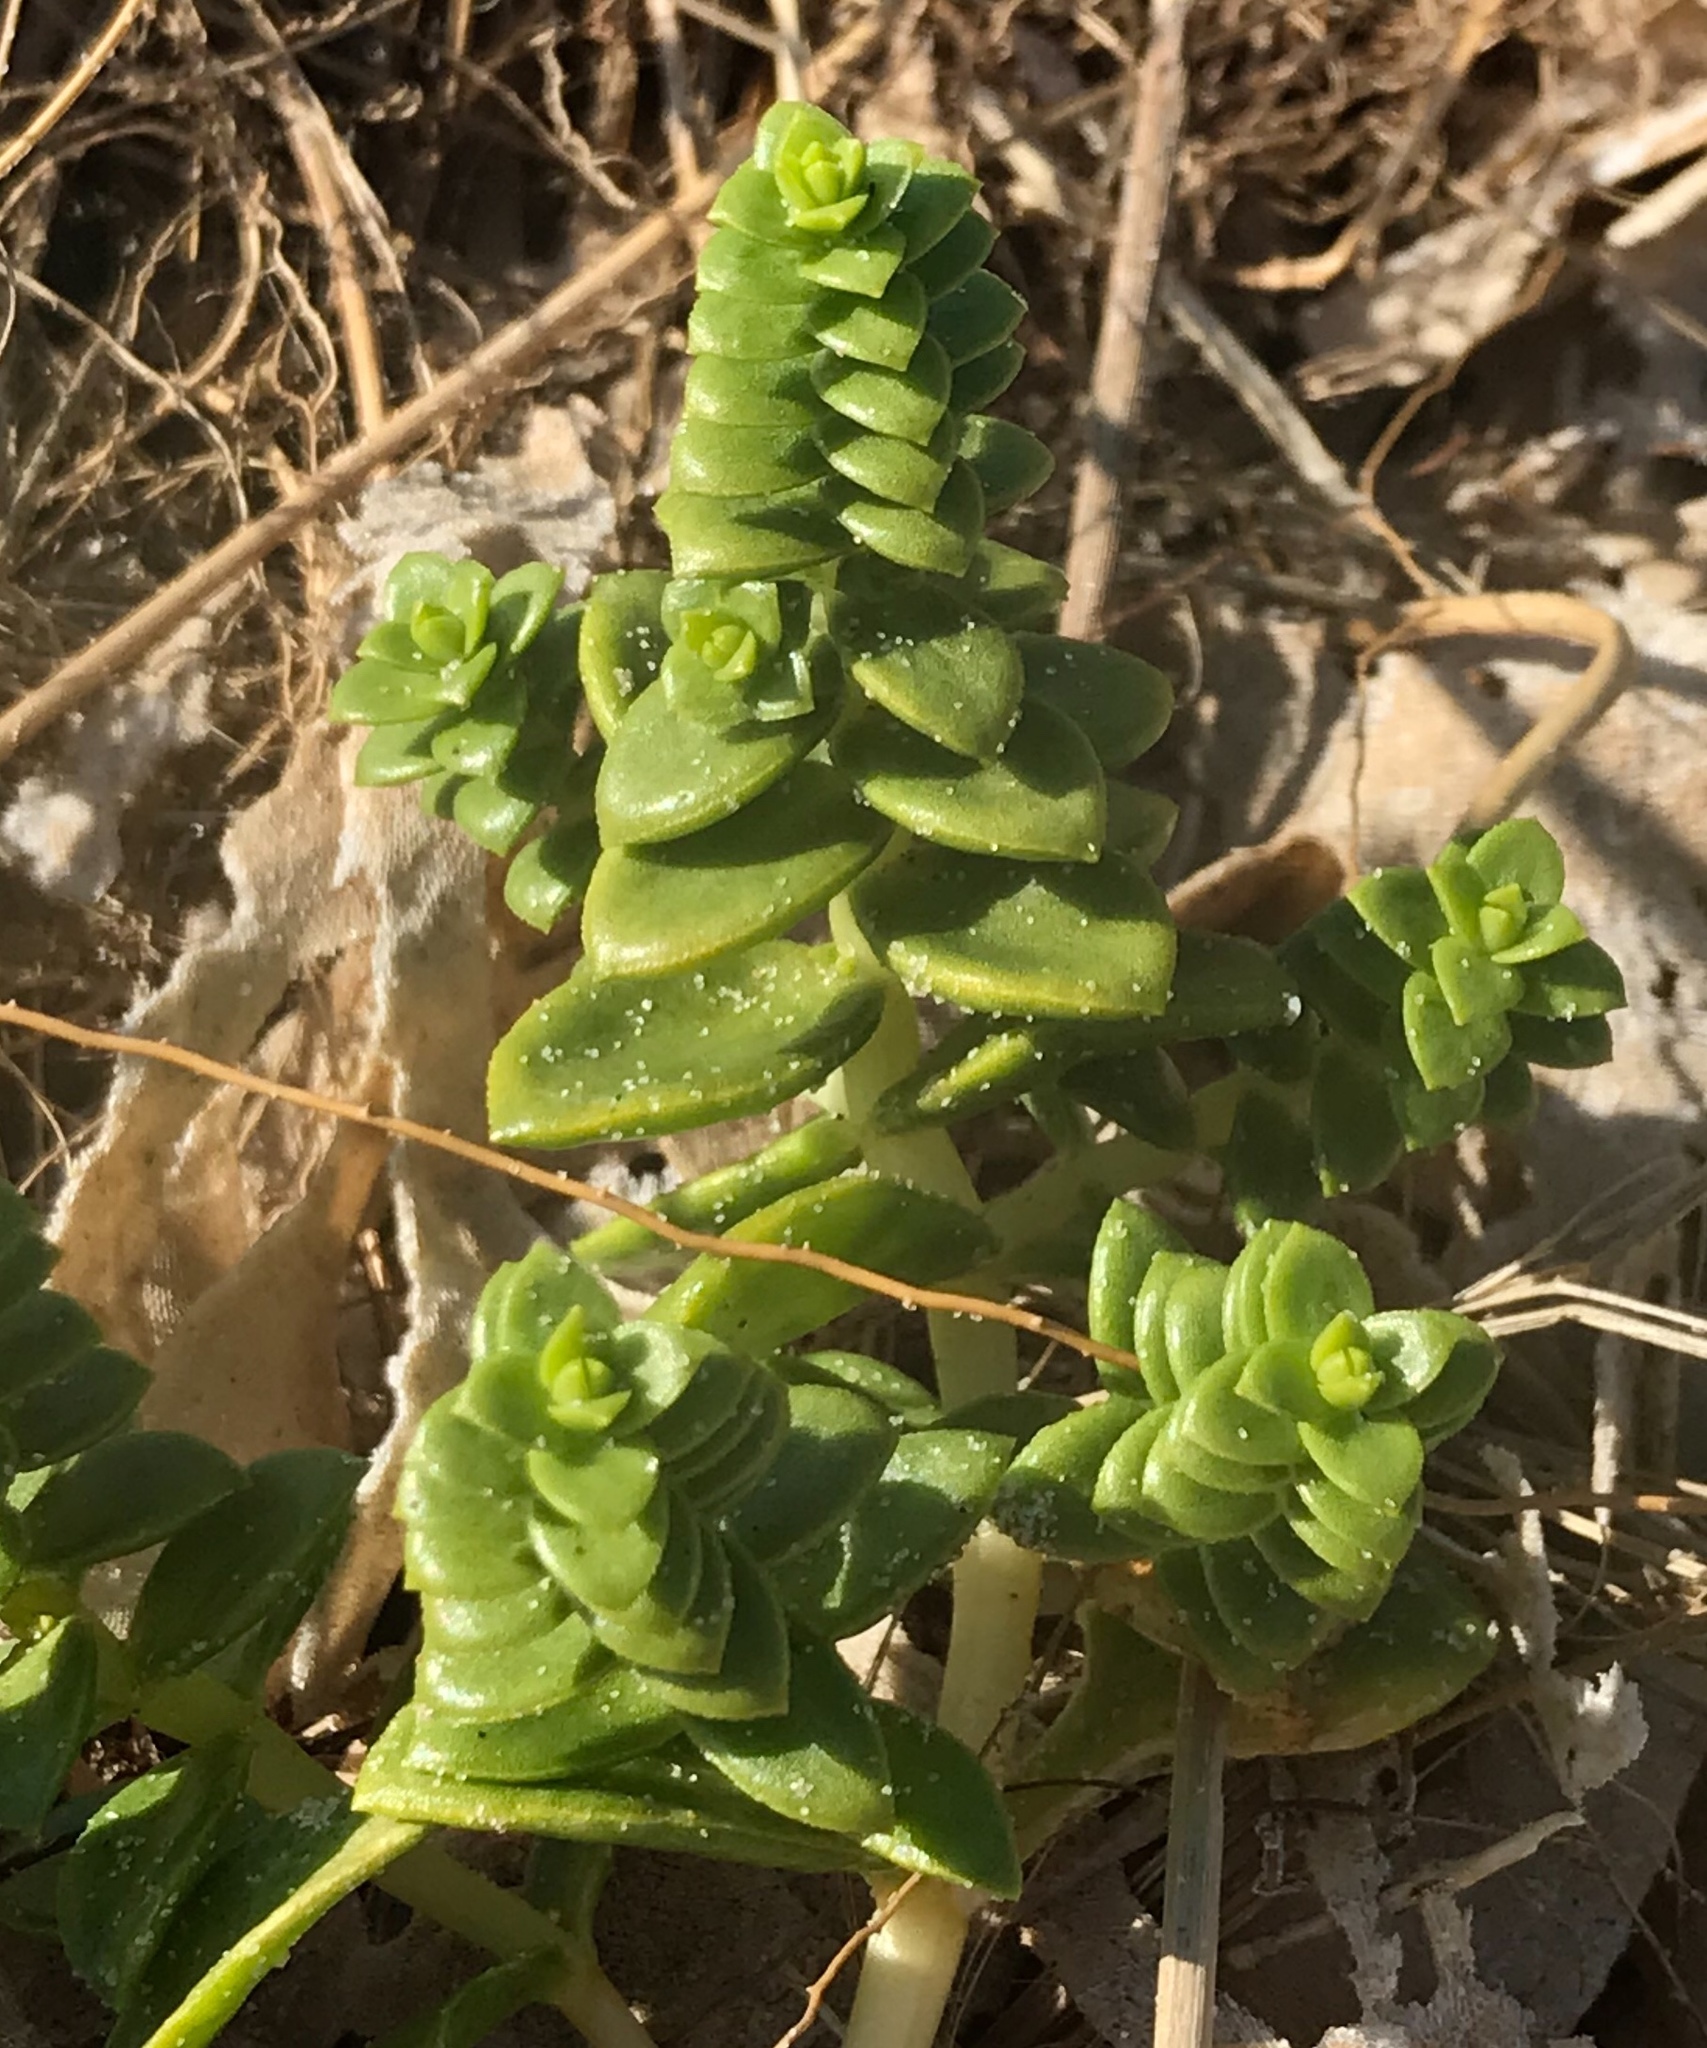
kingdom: Plantae
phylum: Tracheophyta
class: Magnoliopsida
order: Caryophyllales
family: Caryophyllaceae
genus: Honckenya
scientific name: Honckenya peploides
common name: Sea sandwort
